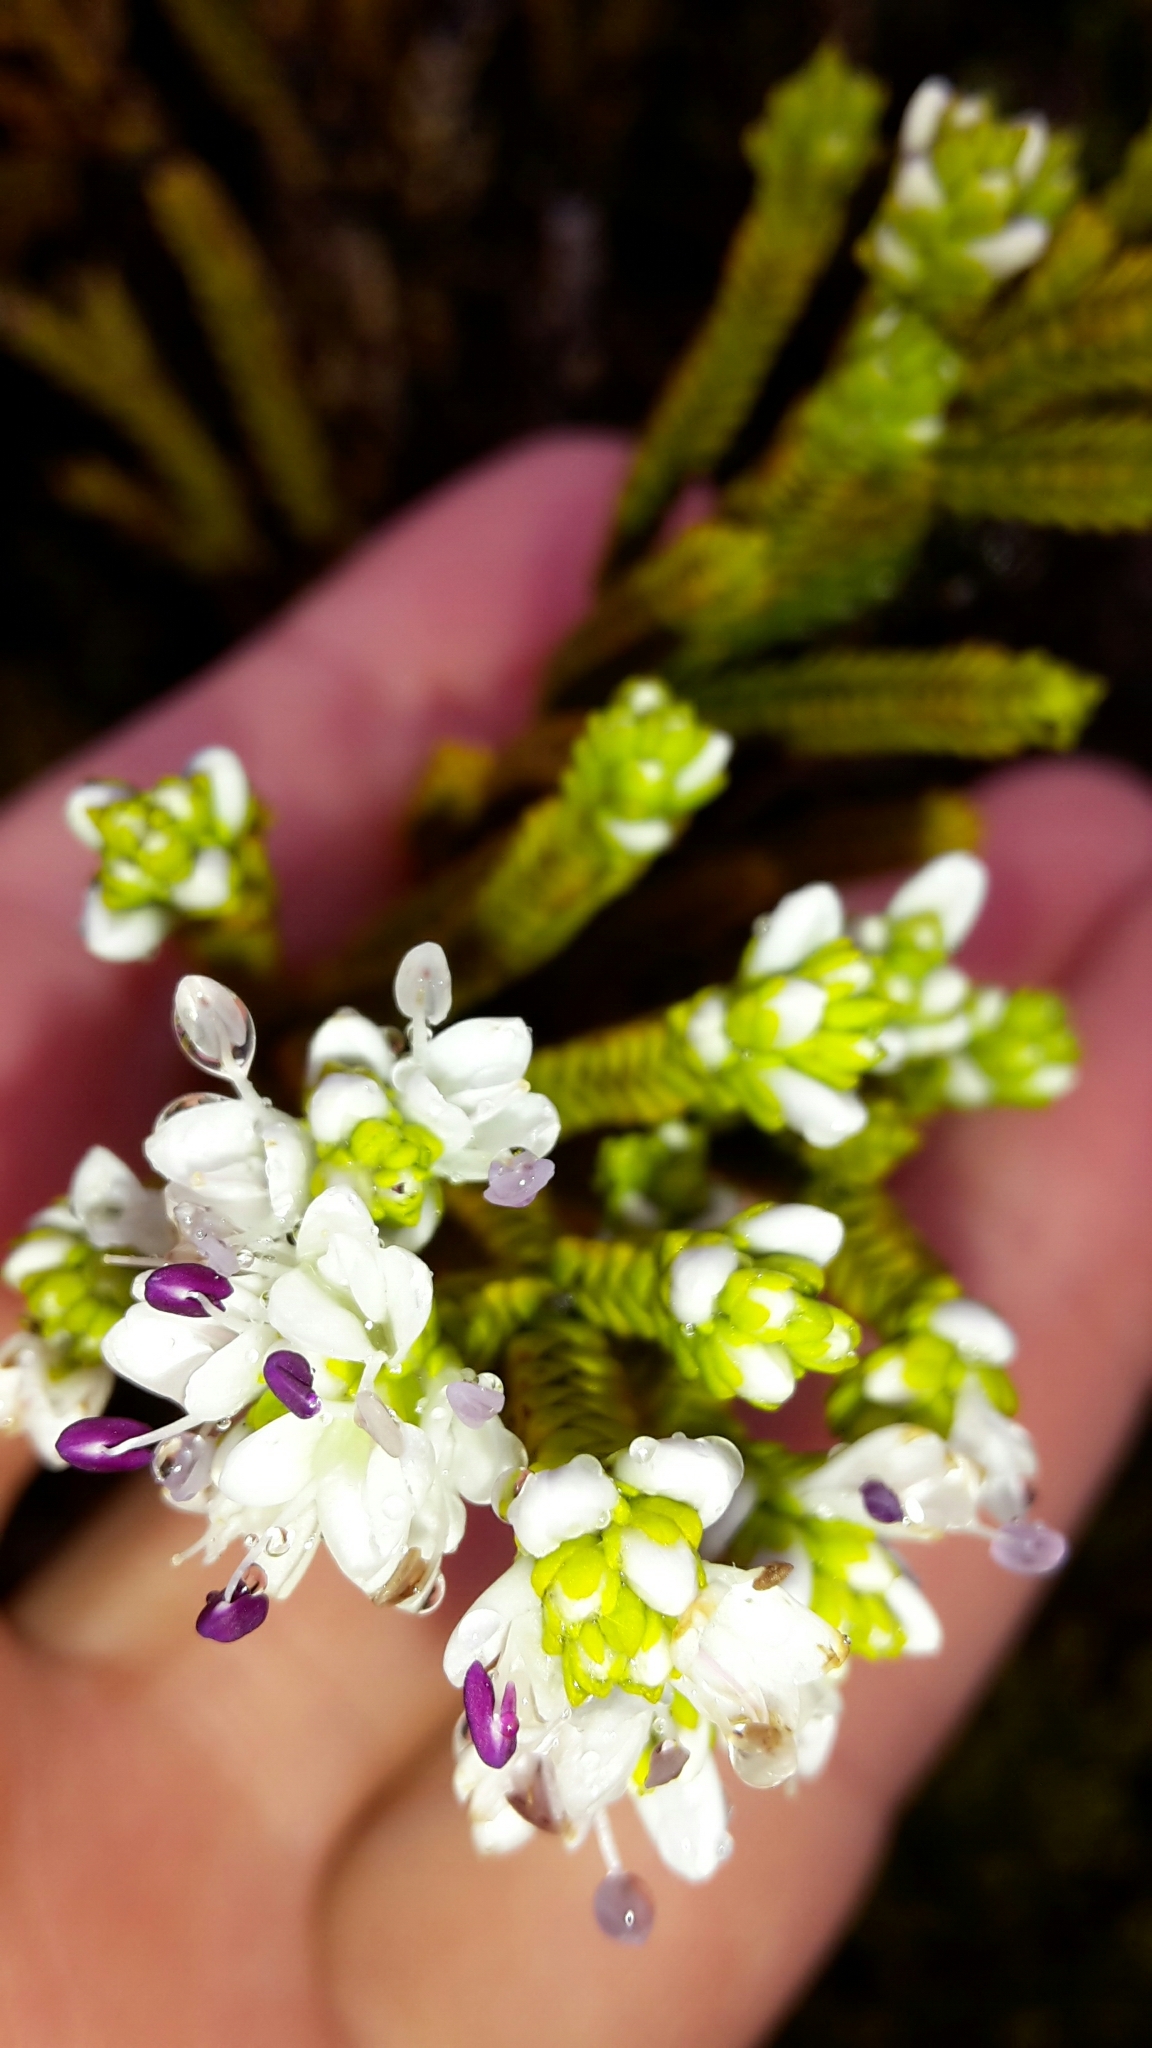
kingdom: Plantae
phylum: Tracheophyta
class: Magnoliopsida
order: Lamiales
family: Plantaginaceae
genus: Veronica
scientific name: Veronica tetragona
